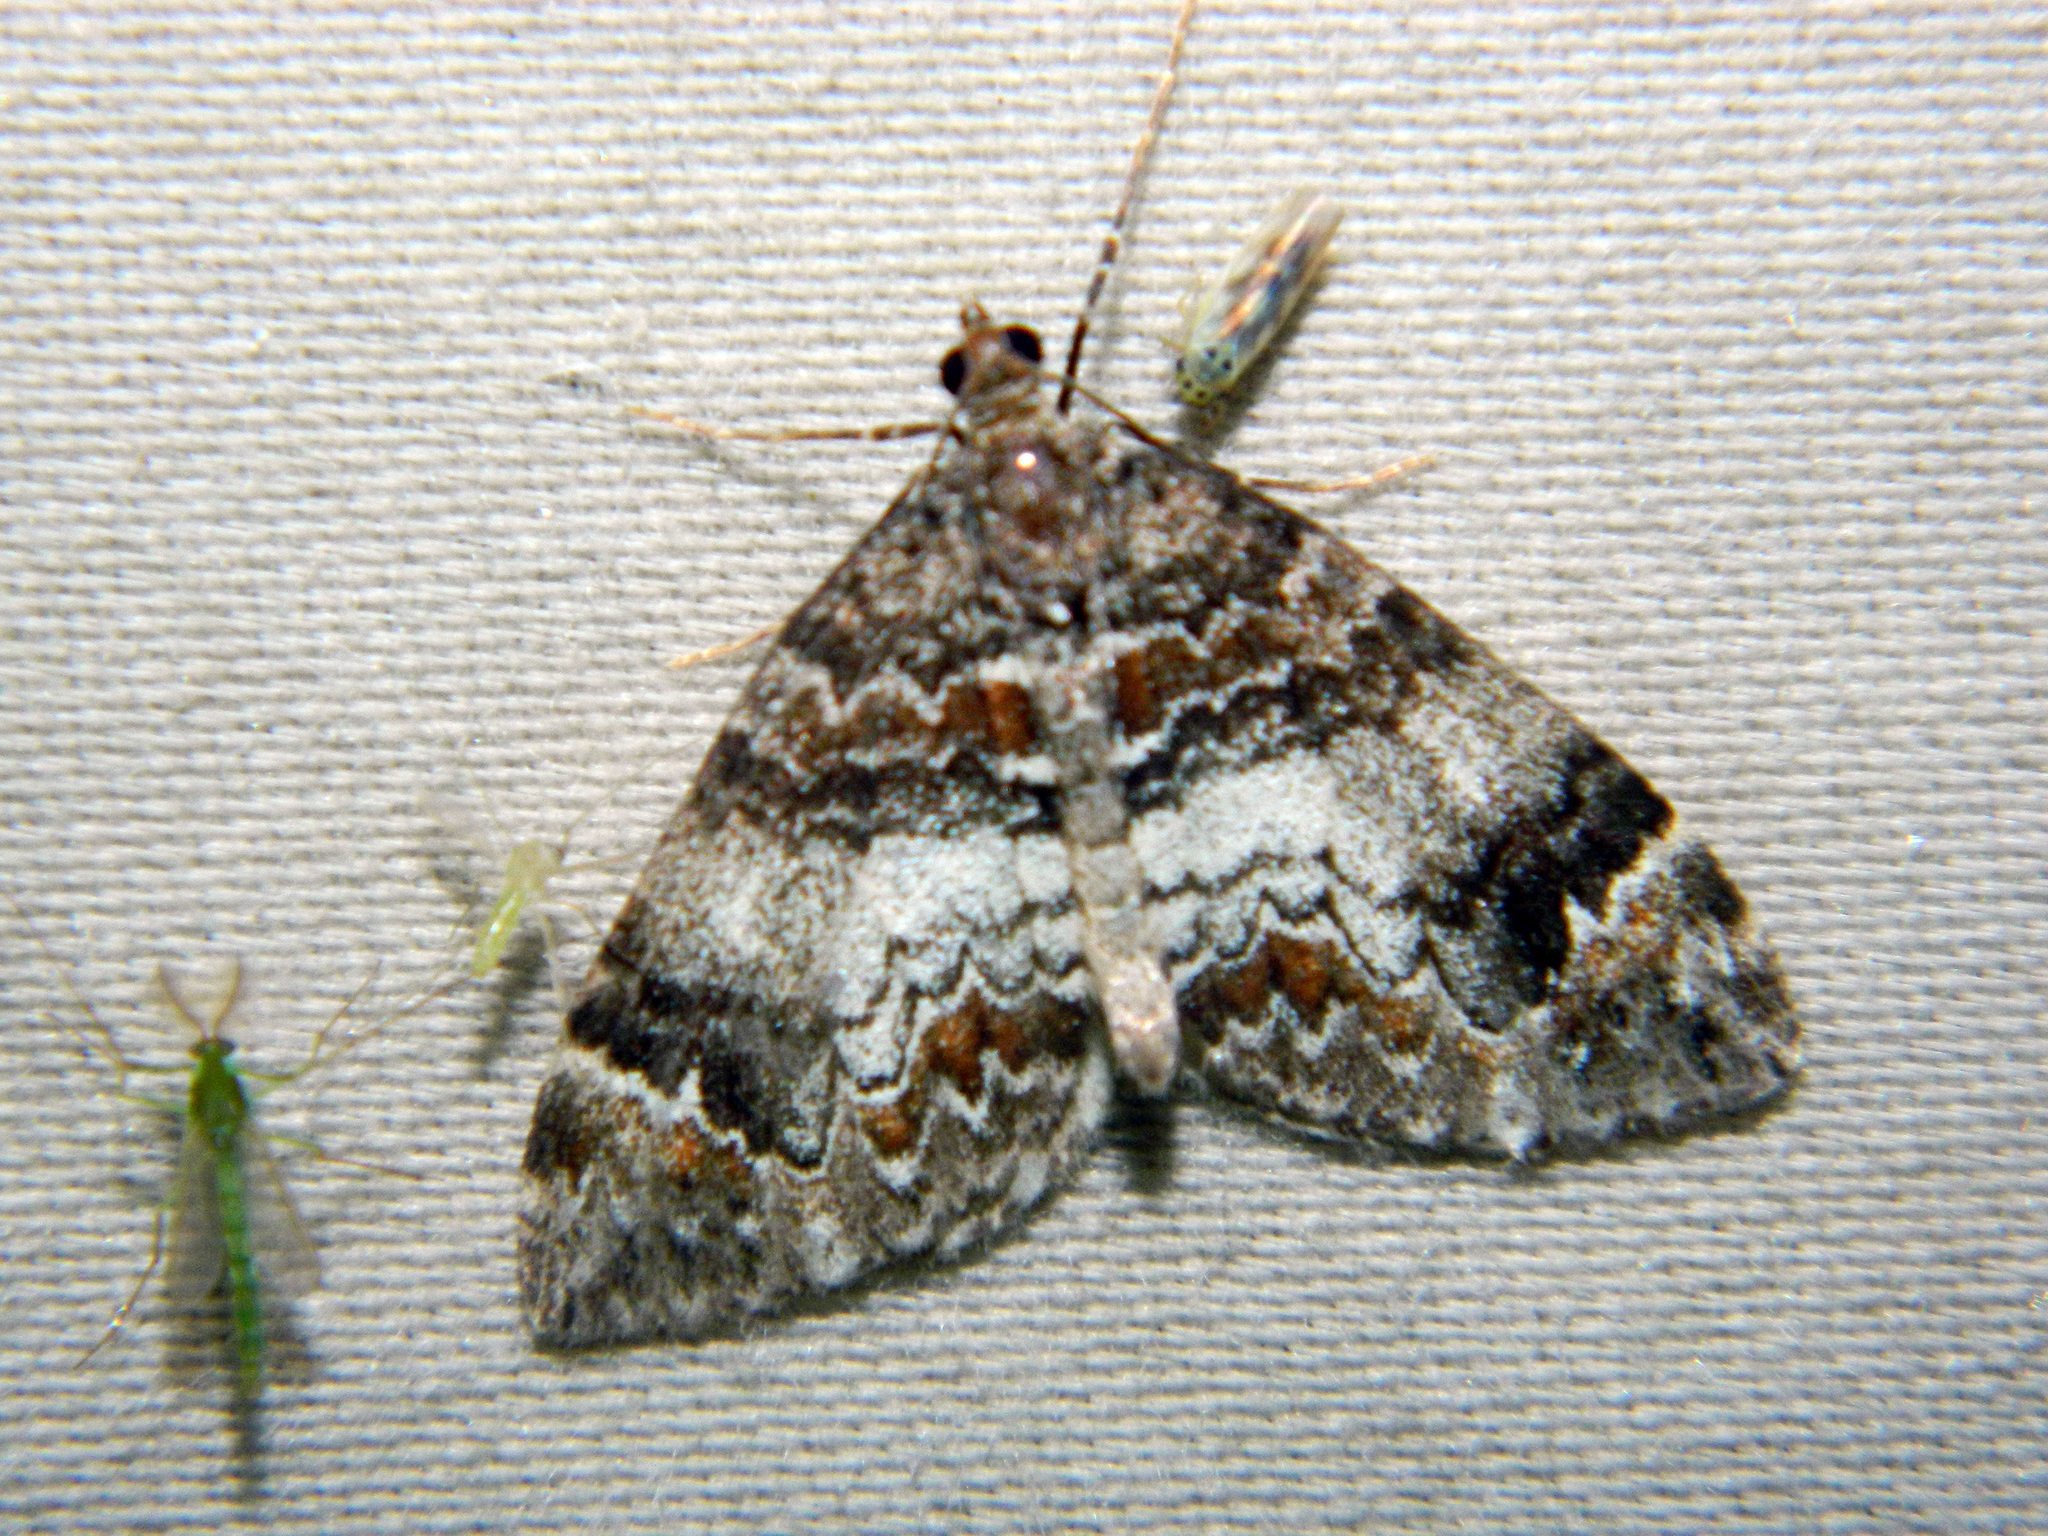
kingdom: Animalia
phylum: Arthropoda
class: Insecta
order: Lepidoptera
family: Geometridae
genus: Dysstroma
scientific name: Dysstroma truncata
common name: Common marbled carpet
